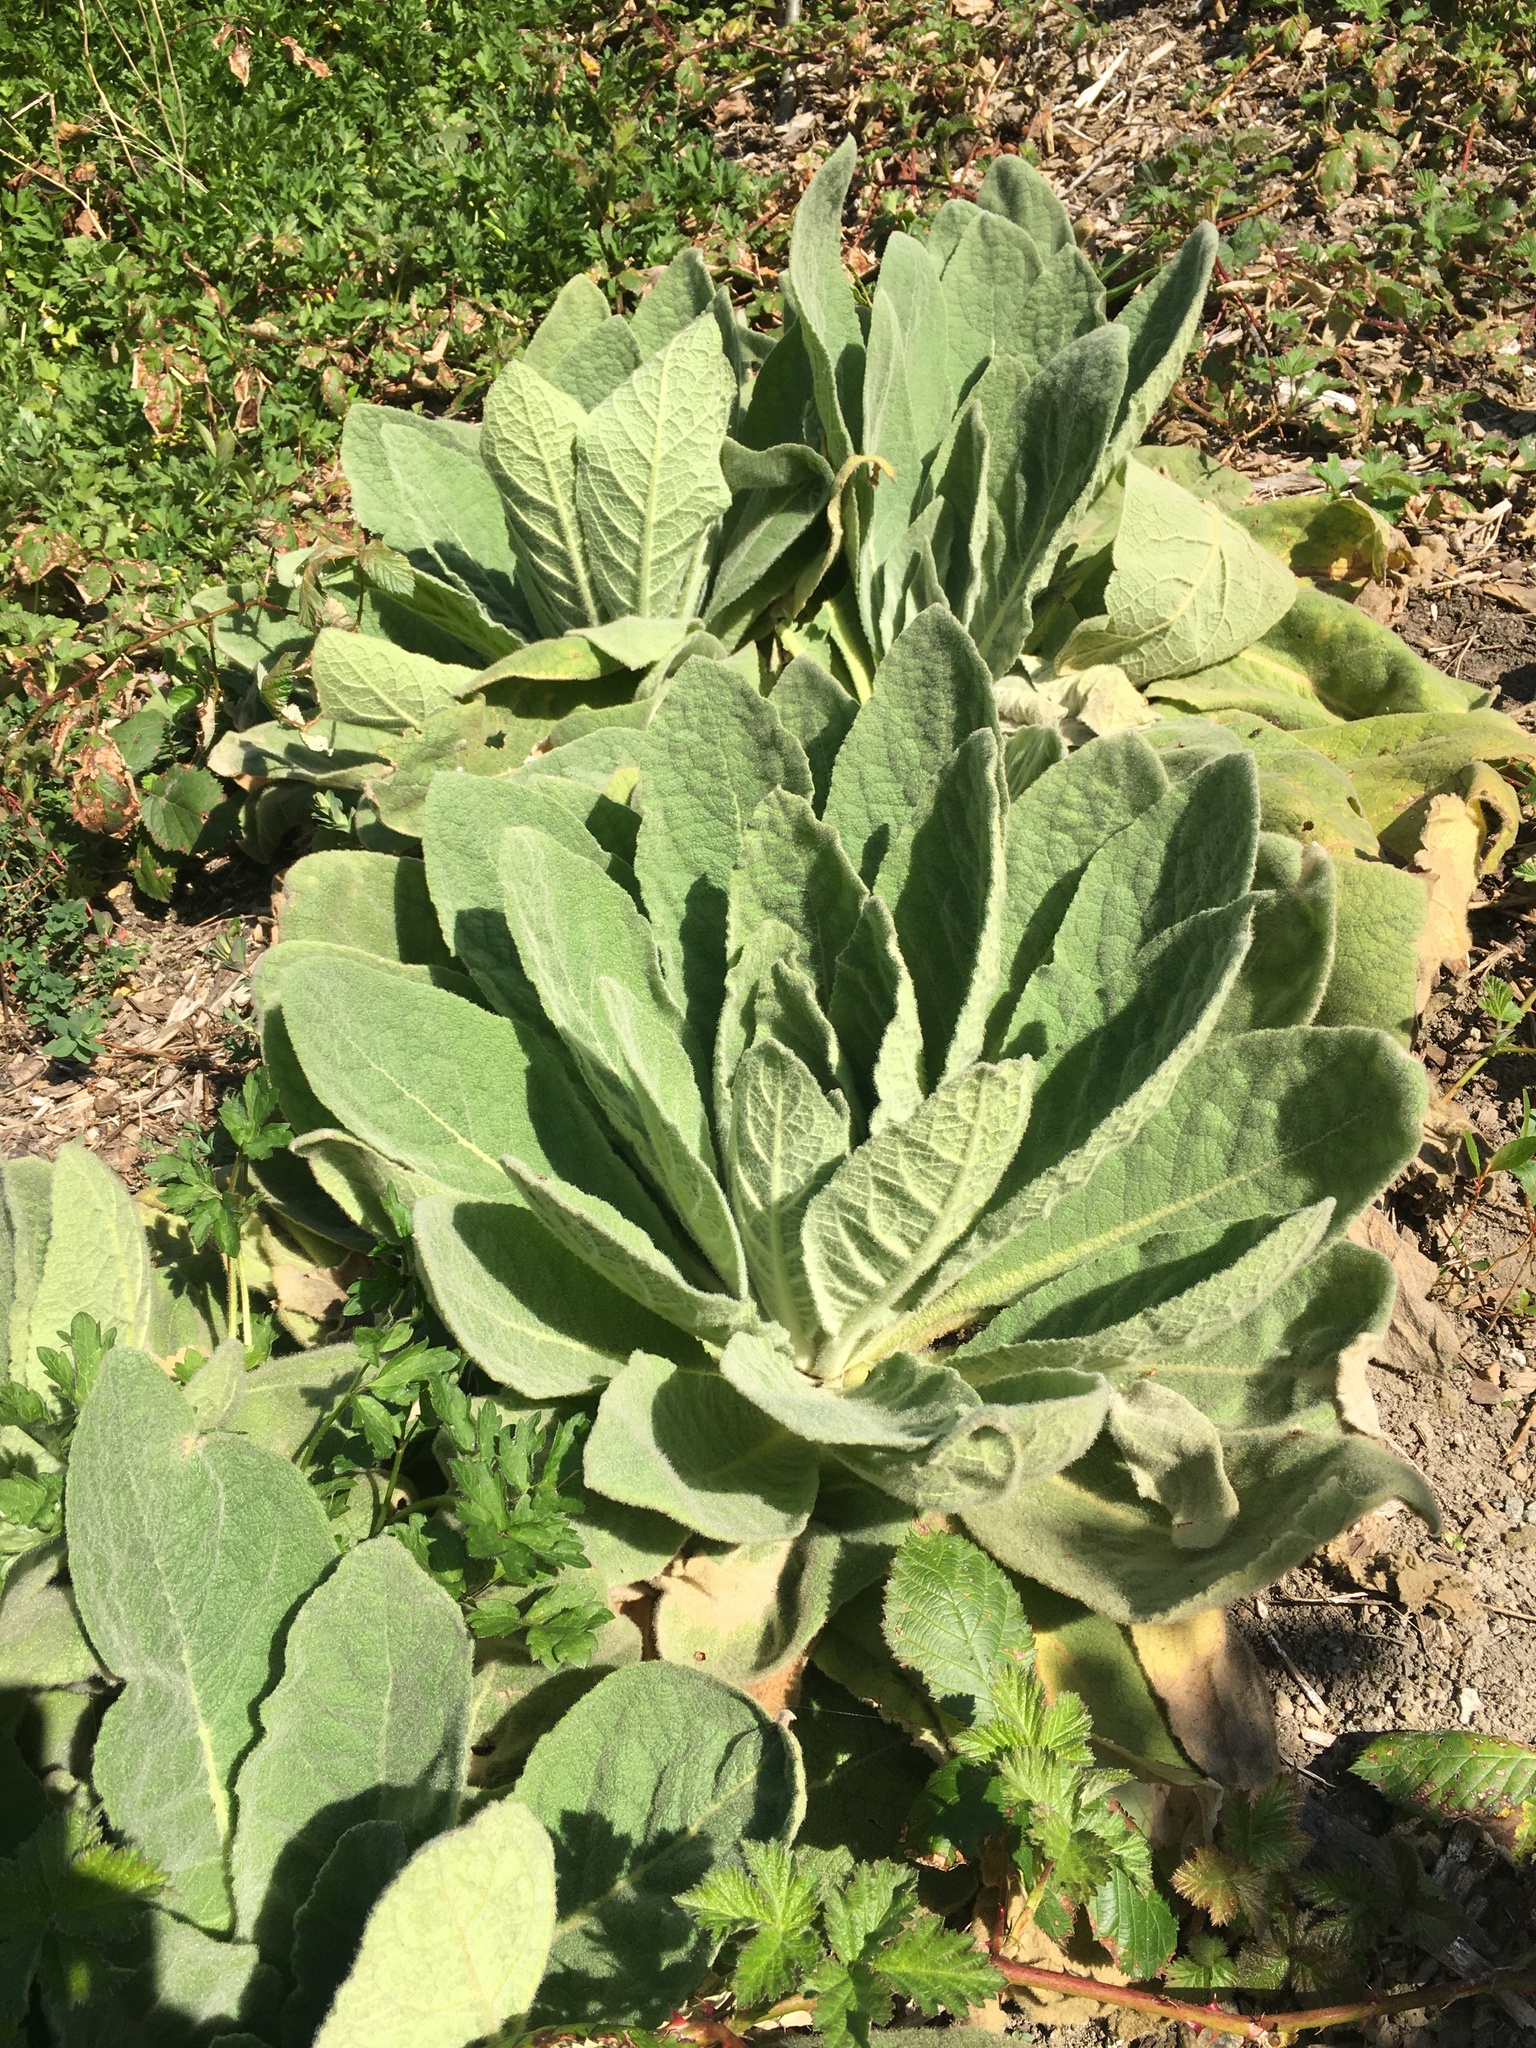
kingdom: Plantae
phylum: Tracheophyta
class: Magnoliopsida
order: Lamiales
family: Scrophulariaceae
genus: Verbascum
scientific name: Verbascum thapsus
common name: Common mullein
